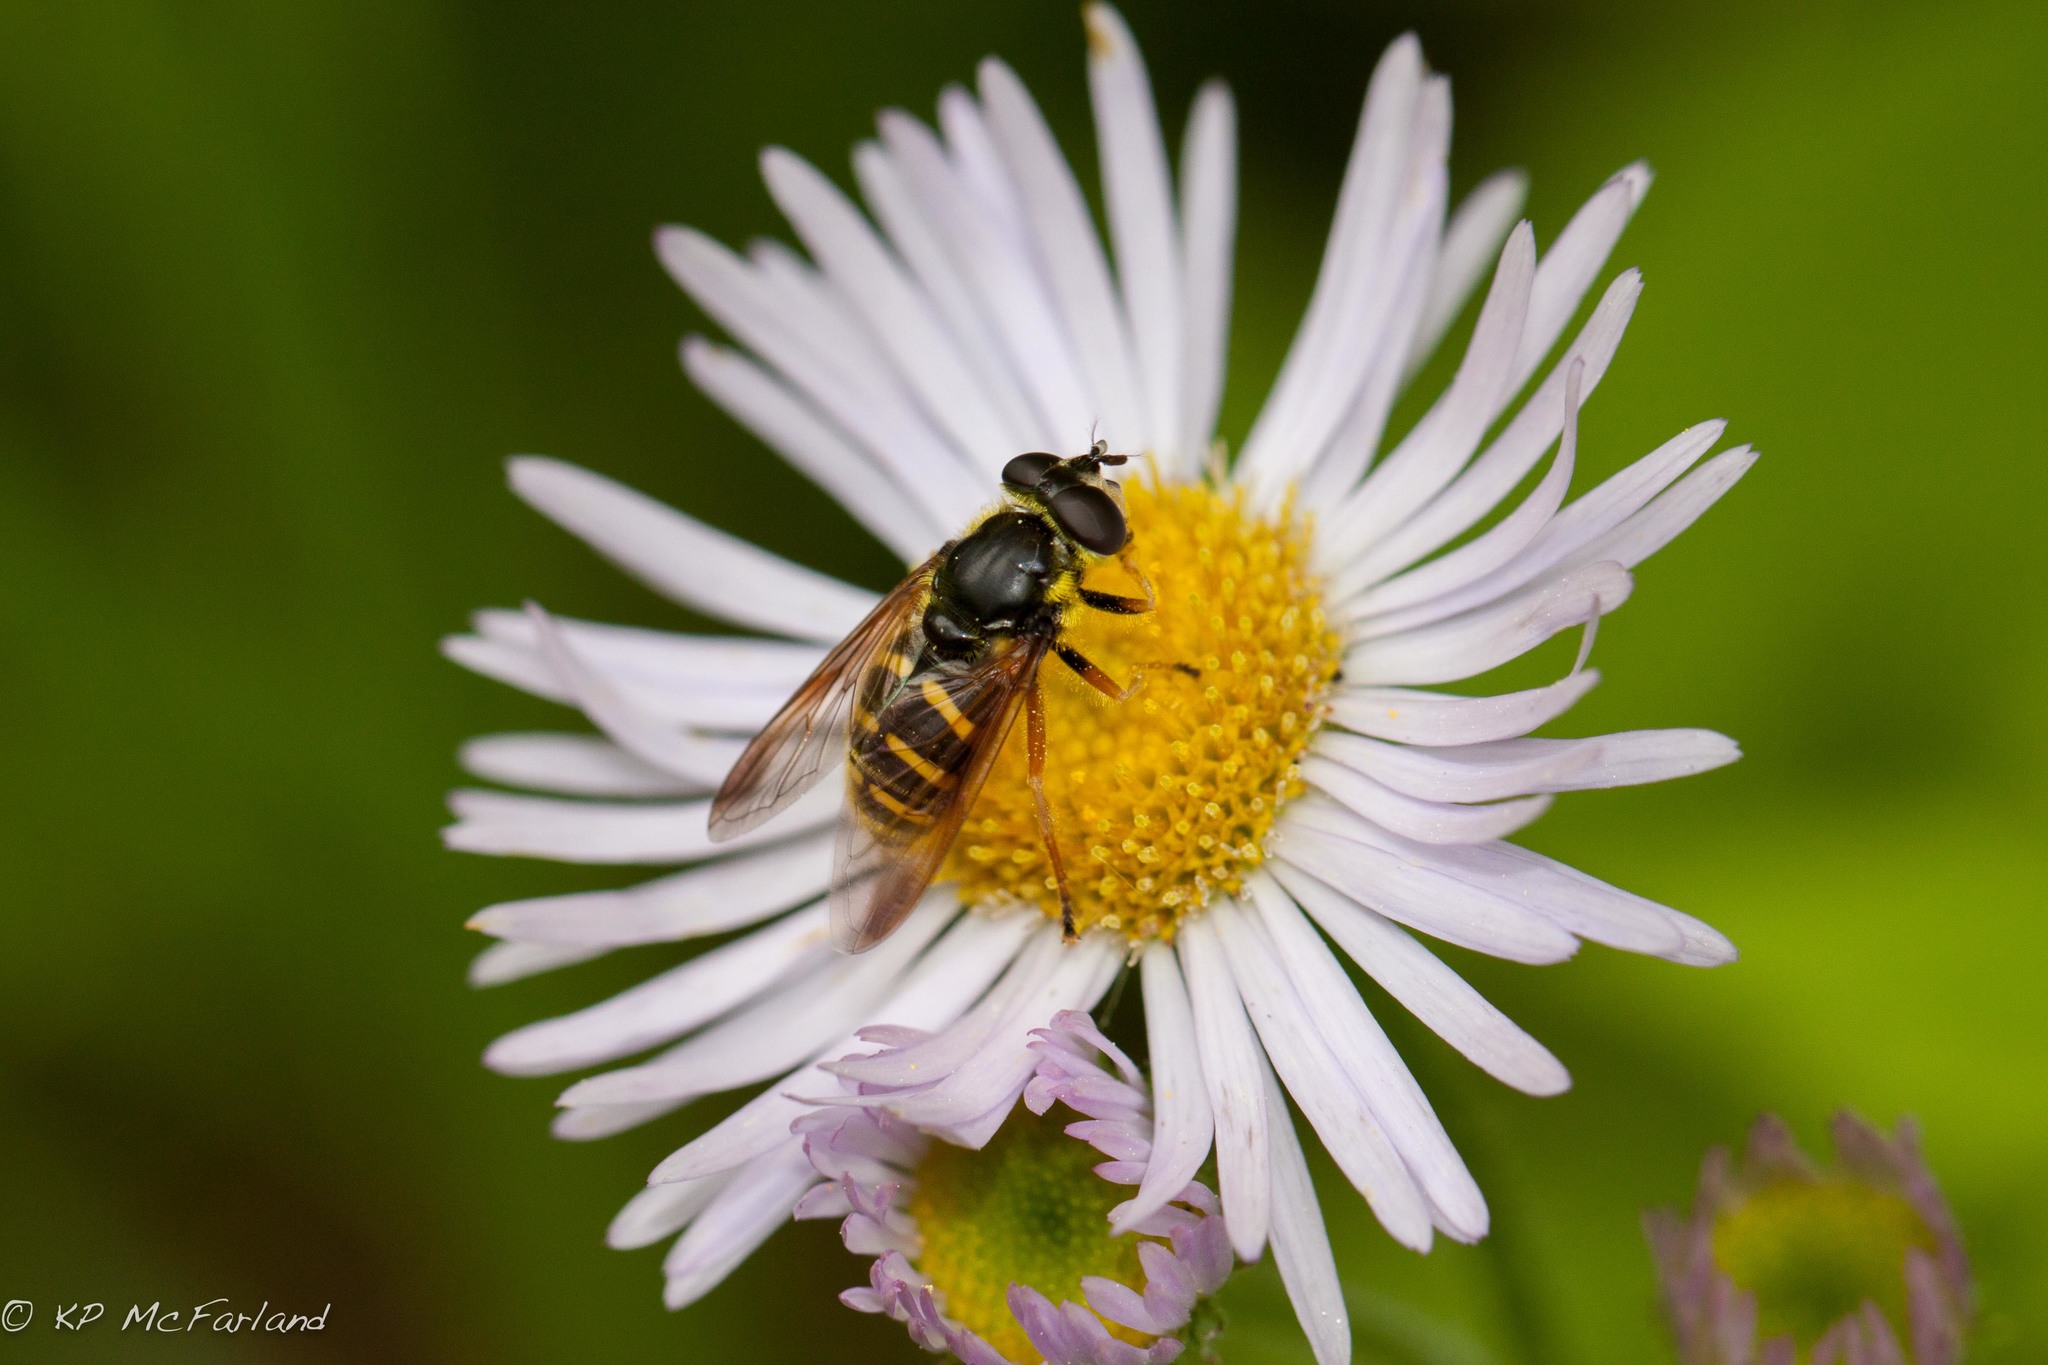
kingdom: Animalia
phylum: Arthropoda
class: Insecta
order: Diptera
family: Syrphidae
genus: Sericomyia
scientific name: Sericomyia chrysotoxoides
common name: Oblique-banded pond fly
